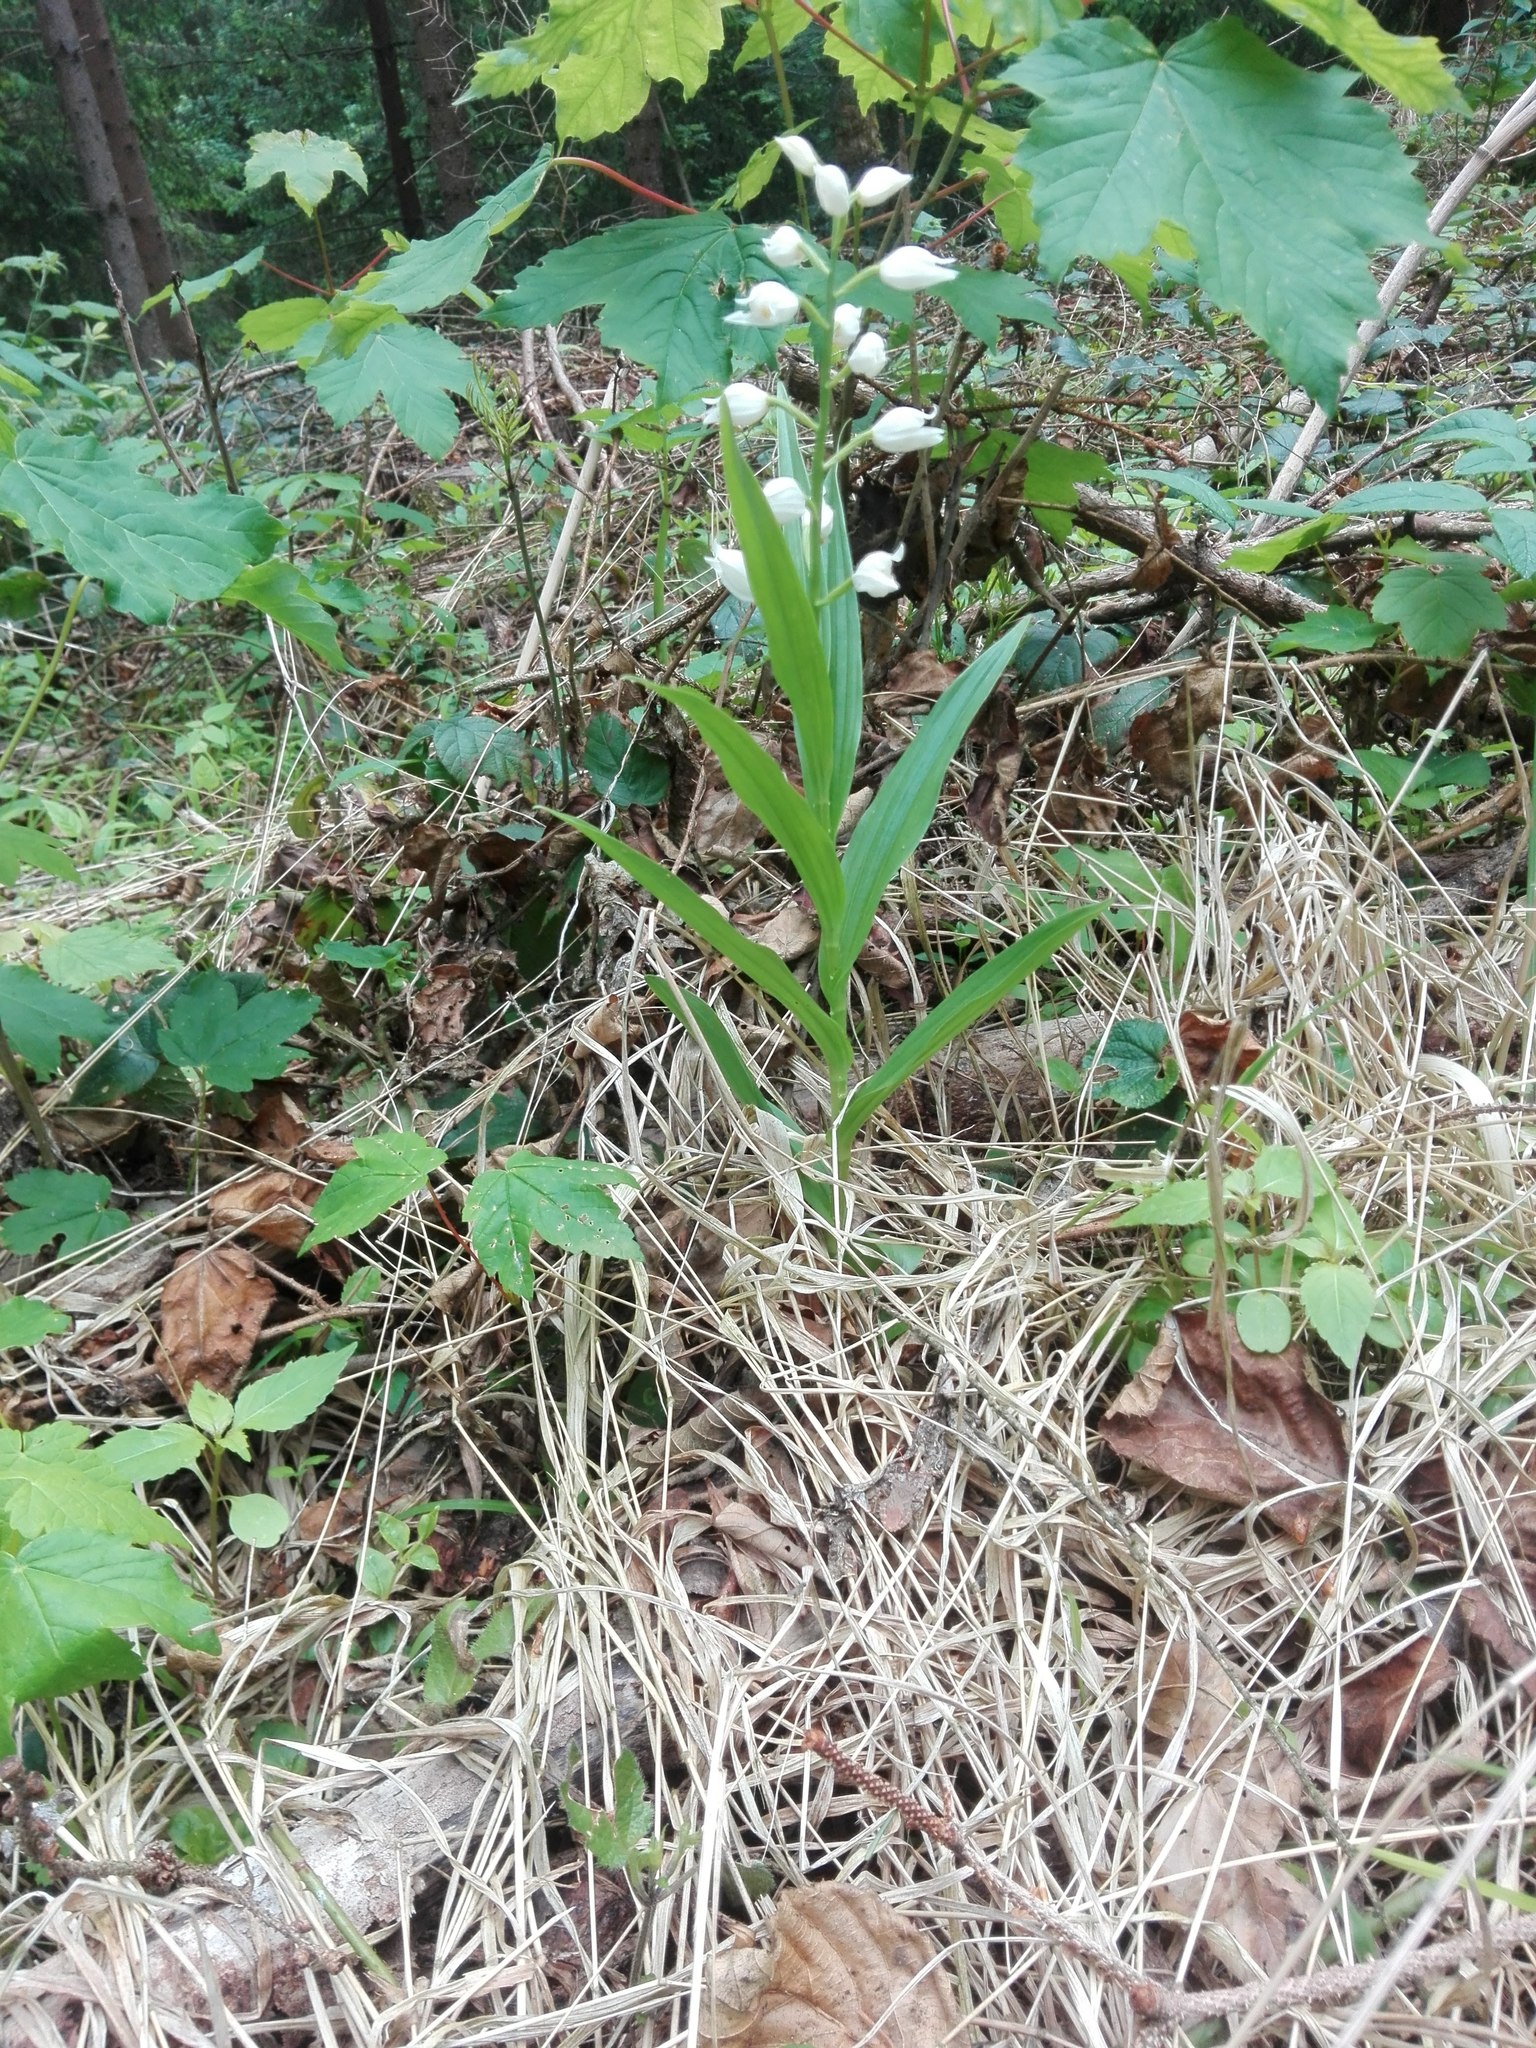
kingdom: Plantae
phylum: Tracheophyta
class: Liliopsida
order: Asparagales
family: Orchidaceae
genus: Cephalanthera
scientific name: Cephalanthera longifolia
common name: Narrow-leaved helleborine
